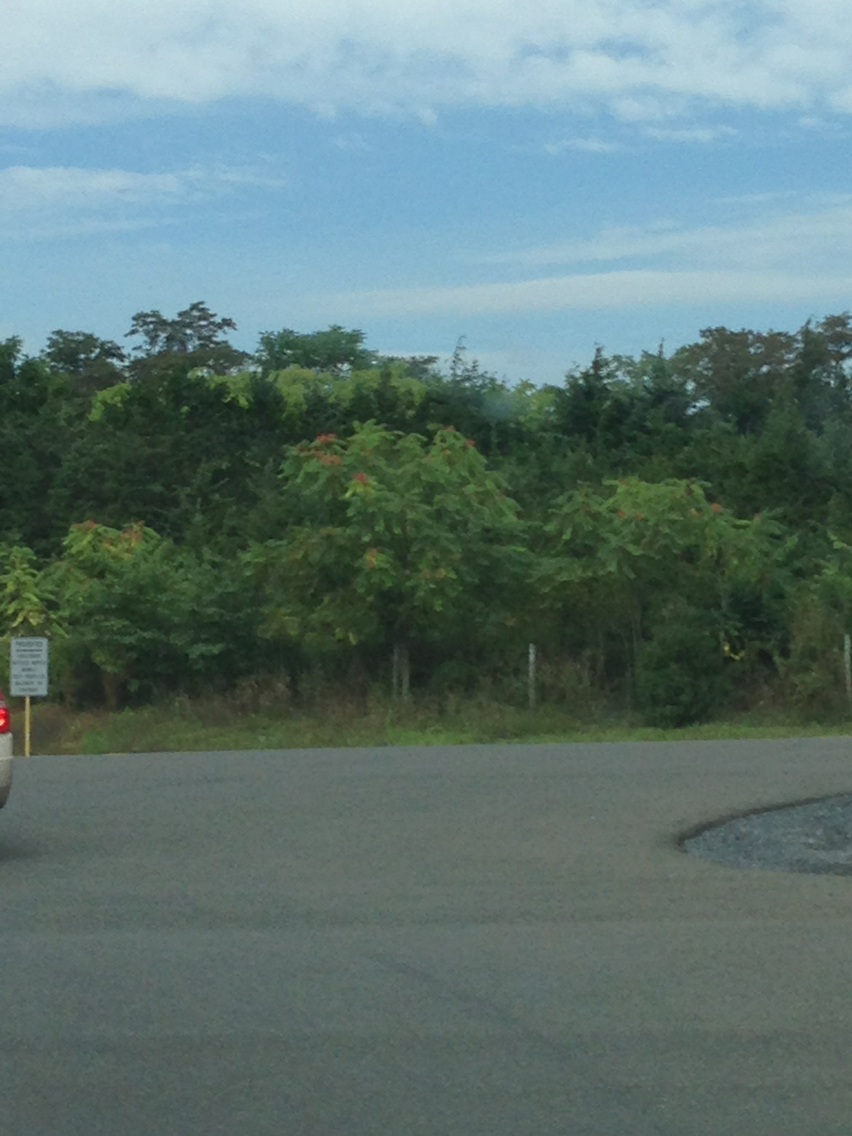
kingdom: Plantae
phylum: Tracheophyta
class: Magnoliopsida
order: Sapindales
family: Simaroubaceae
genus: Ailanthus
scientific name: Ailanthus altissima
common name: Tree-of-heaven
